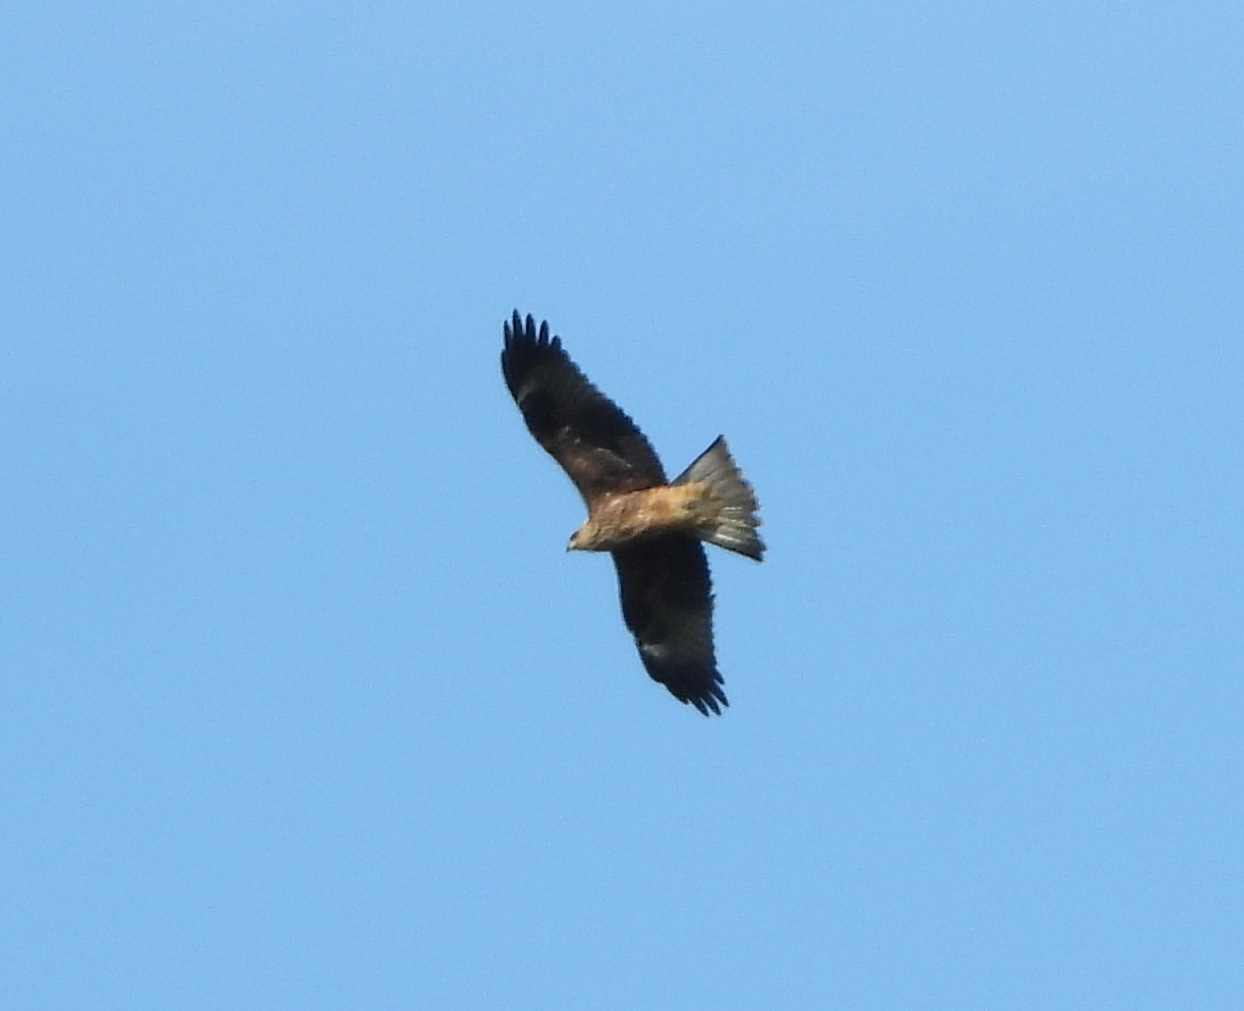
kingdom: Animalia
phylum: Chordata
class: Aves
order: Accipitriformes
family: Accipitridae
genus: Milvus
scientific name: Milvus migrans
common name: Black kite
